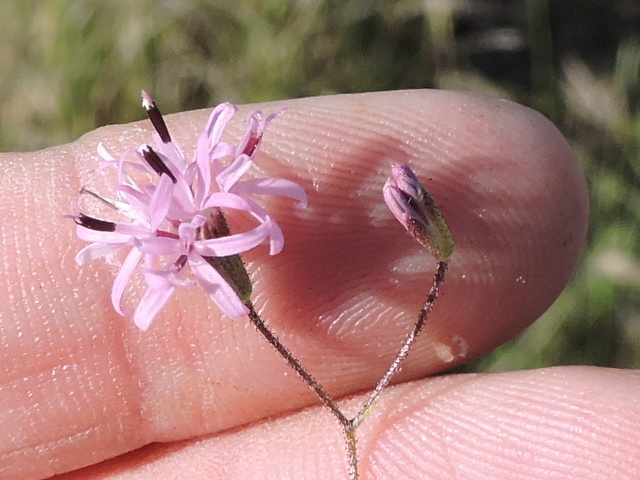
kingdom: Plantae
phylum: Tracheophyta
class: Magnoliopsida
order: Asterales
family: Asteraceae
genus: Palafoxia
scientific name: Palafoxia callosa
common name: Small palafox
